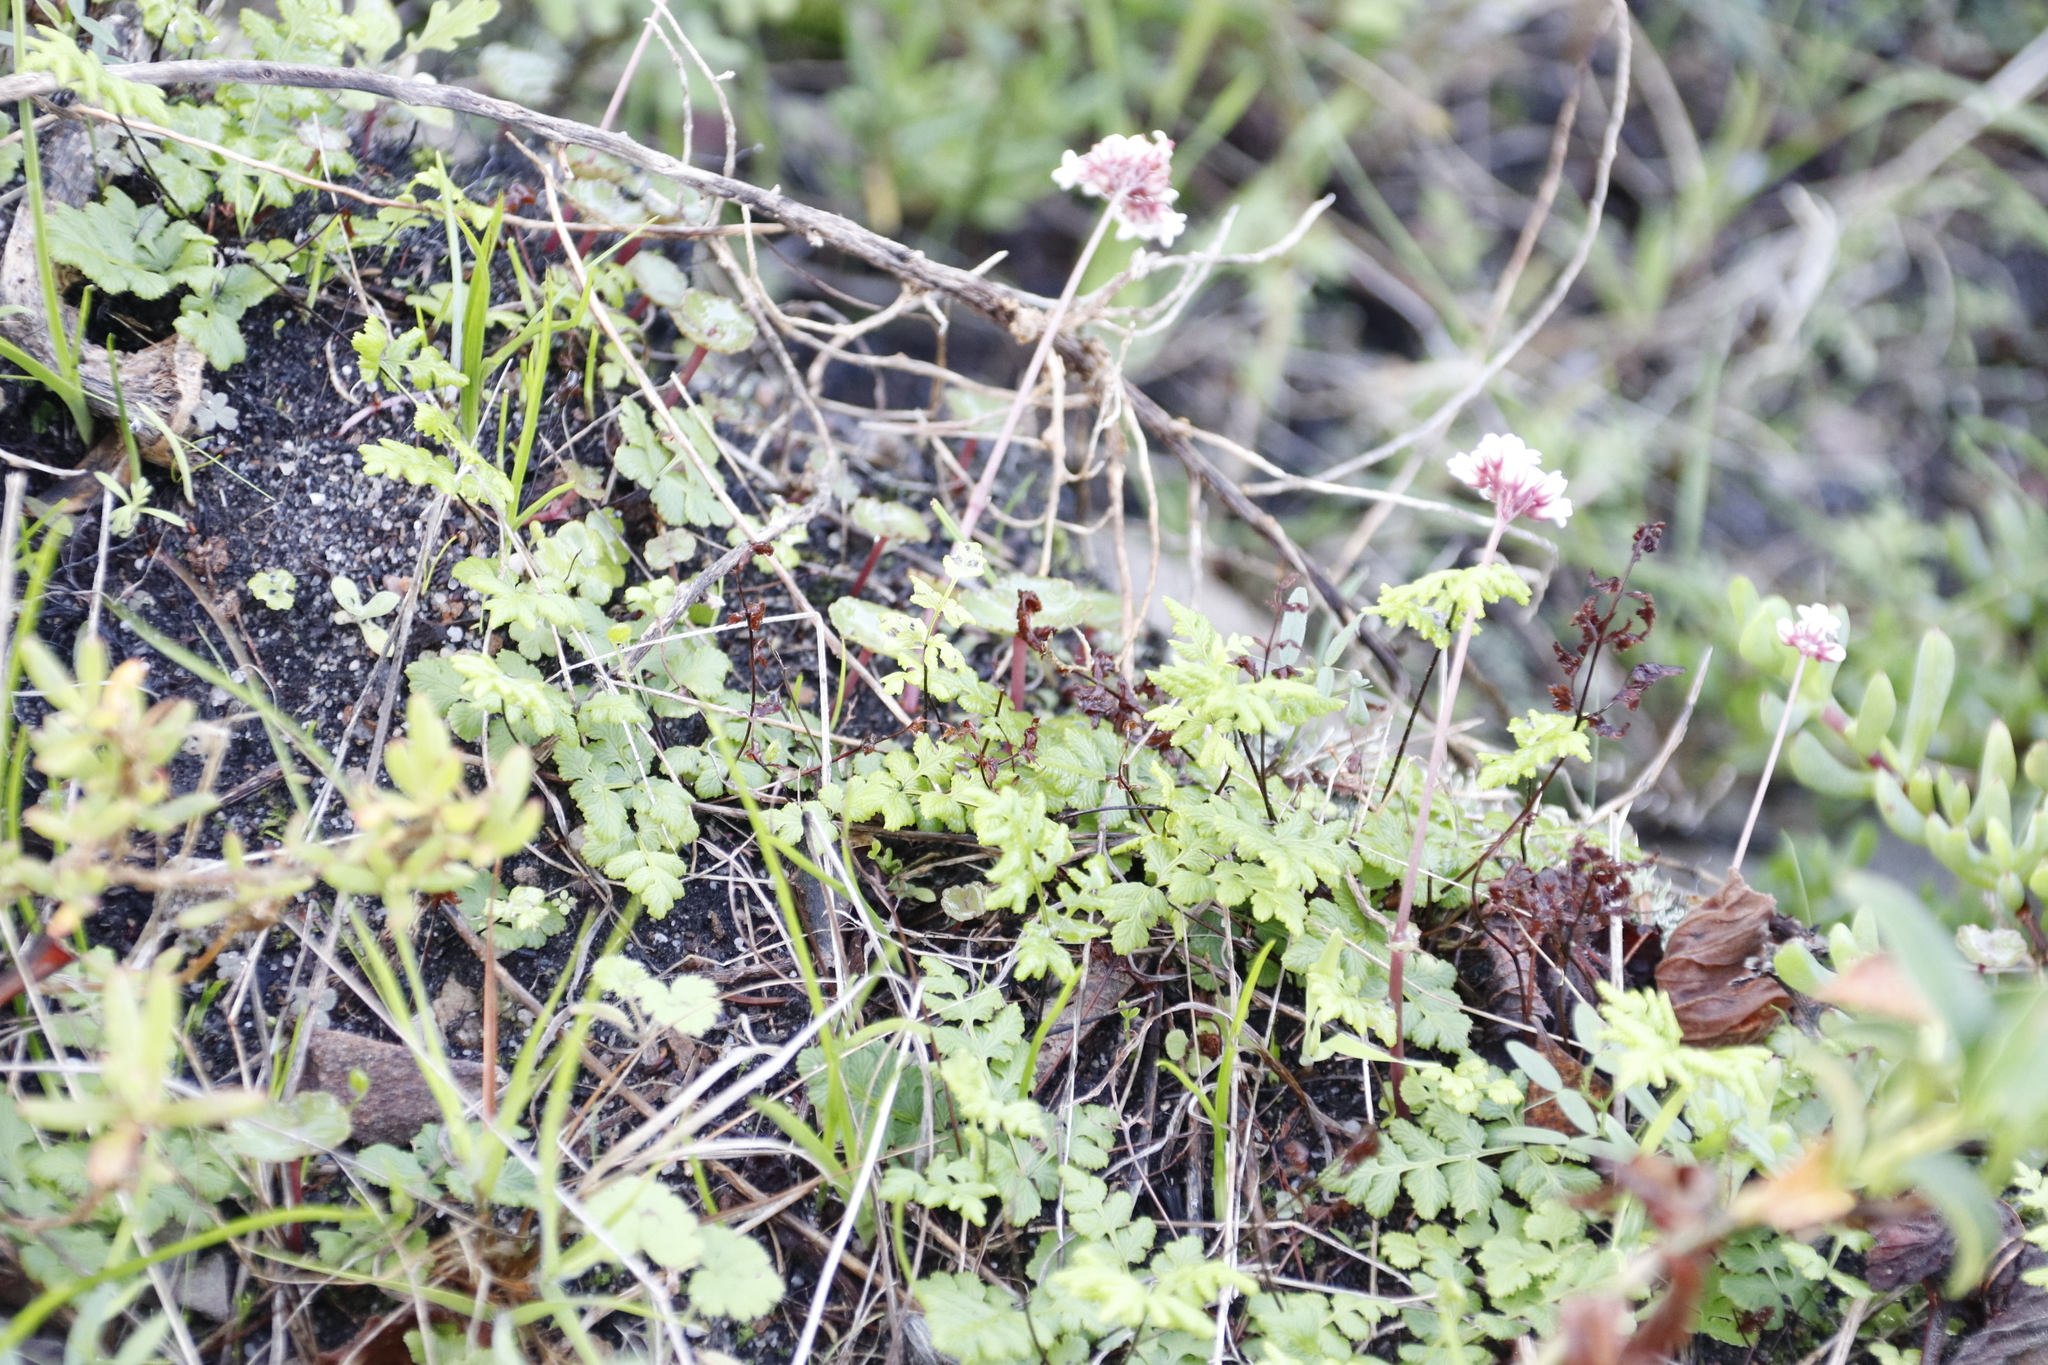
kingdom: Plantae
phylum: Tracheophyta
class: Magnoliopsida
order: Saxifragales
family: Crassulaceae
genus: Crassula
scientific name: Crassula saxifraga
